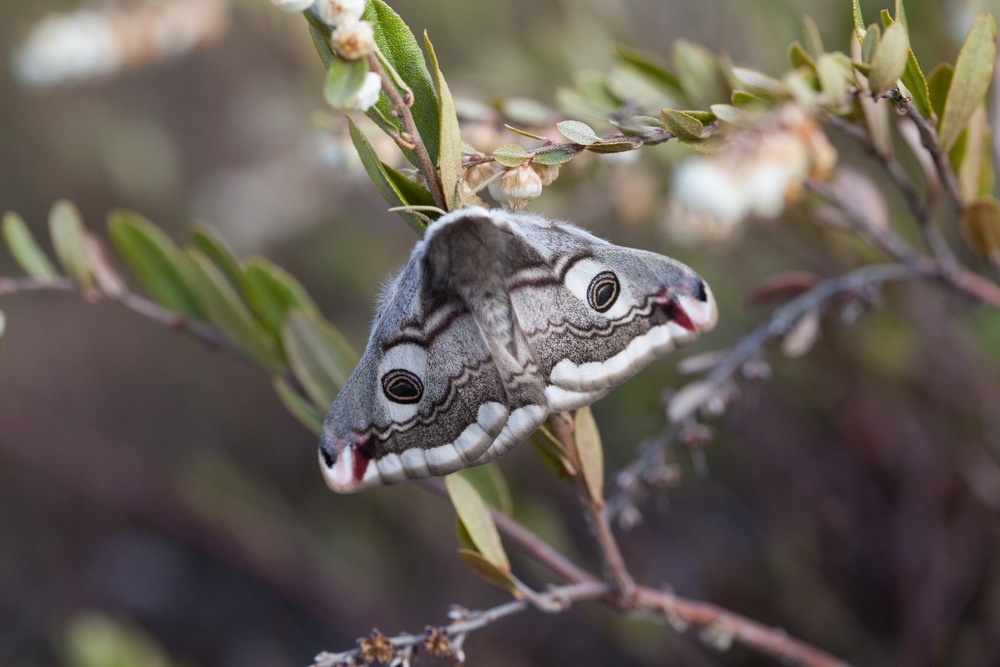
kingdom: Animalia
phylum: Arthropoda
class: Insecta
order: Lepidoptera
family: Saturniidae
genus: Saturnia
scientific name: Saturnia pavonia
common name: Emperor moth
